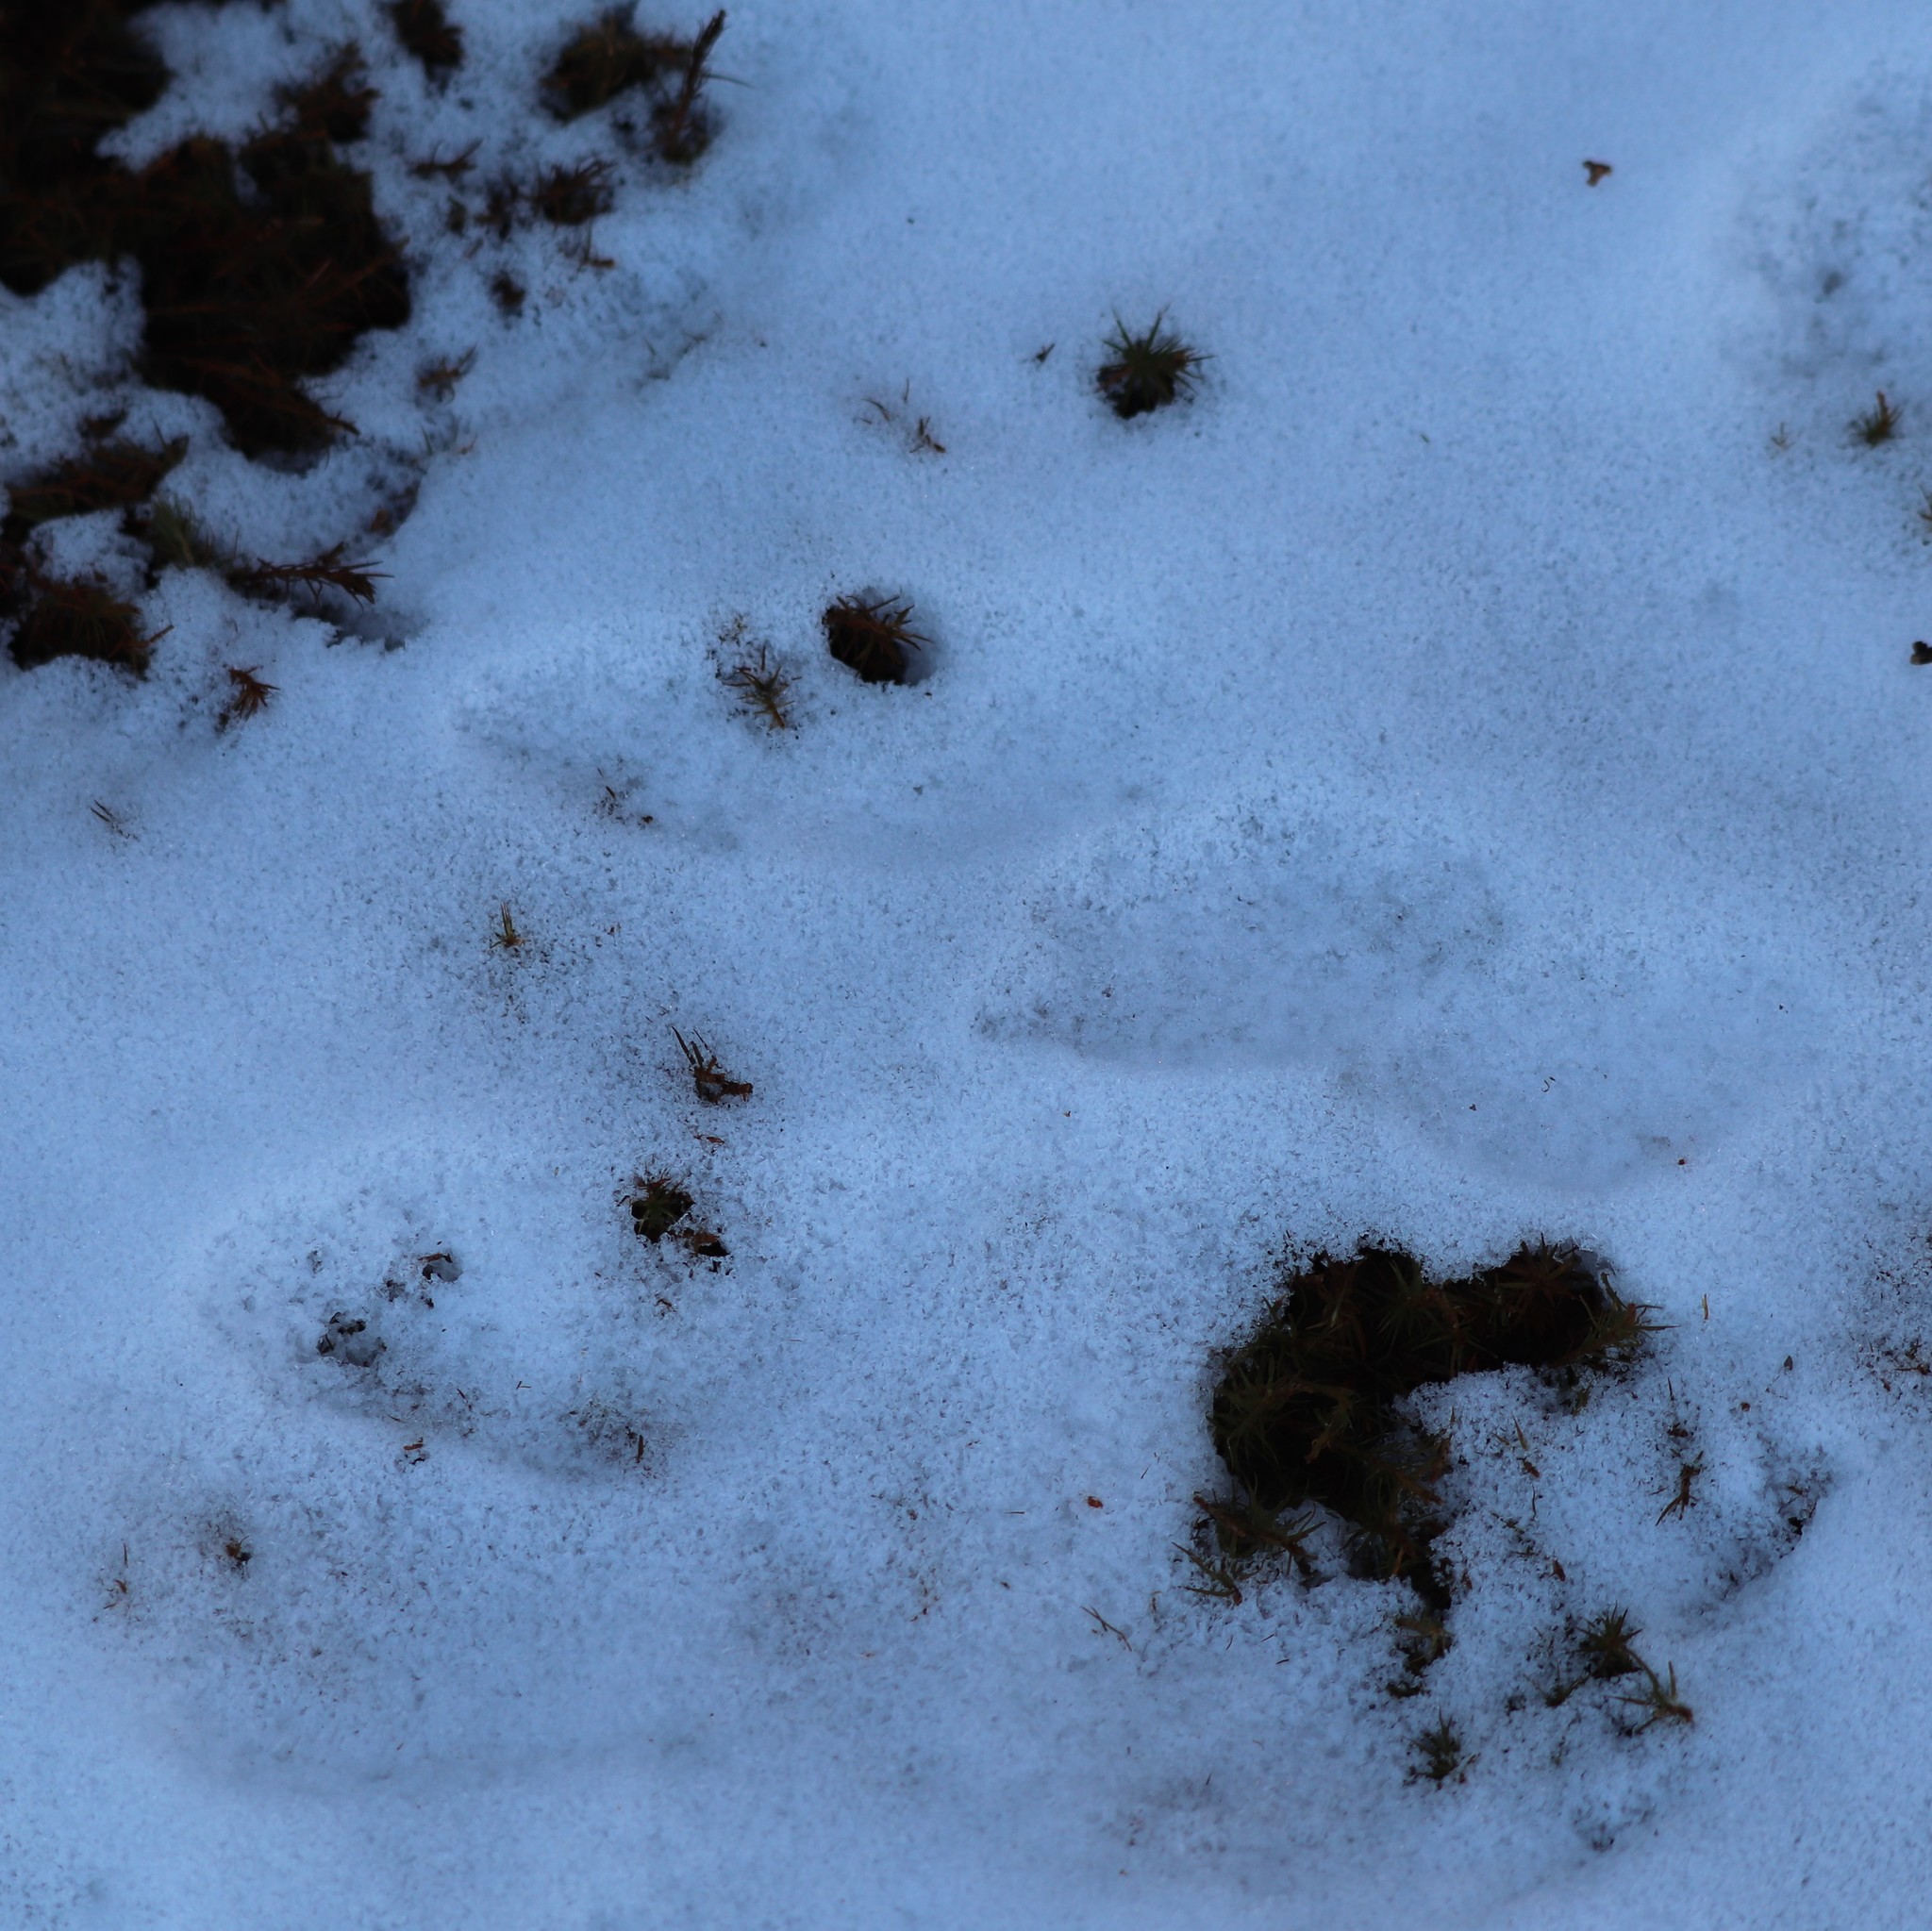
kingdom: Animalia
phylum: Chordata
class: Mammalia
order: Lagomorpha
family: Leporidae
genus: Sylvilagus
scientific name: Sylvilagus floridanus
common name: Eastern cottontail
